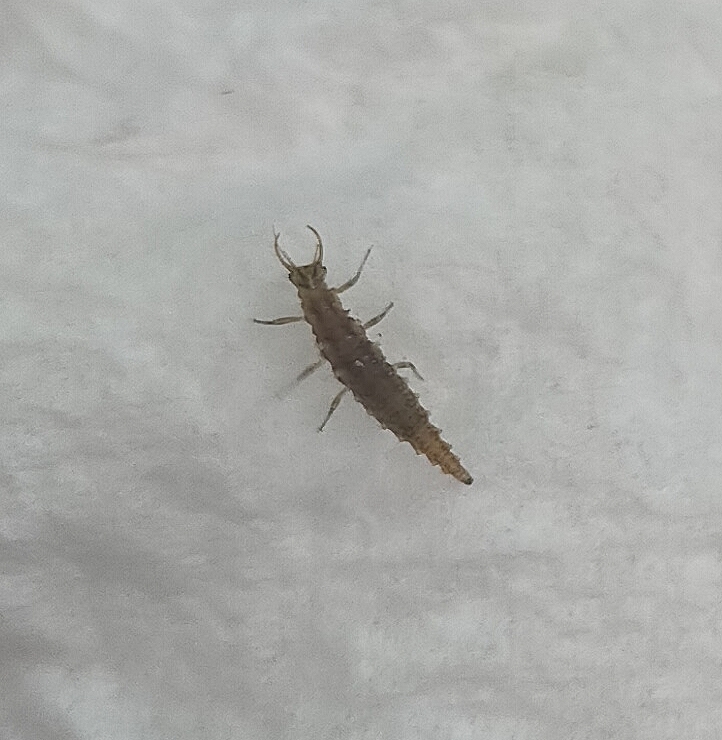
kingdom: Animalia
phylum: Arthropoda
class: Insecta
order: Neuroptera
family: Chrysopidae
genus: Chrysoperla
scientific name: Chrysoperla
